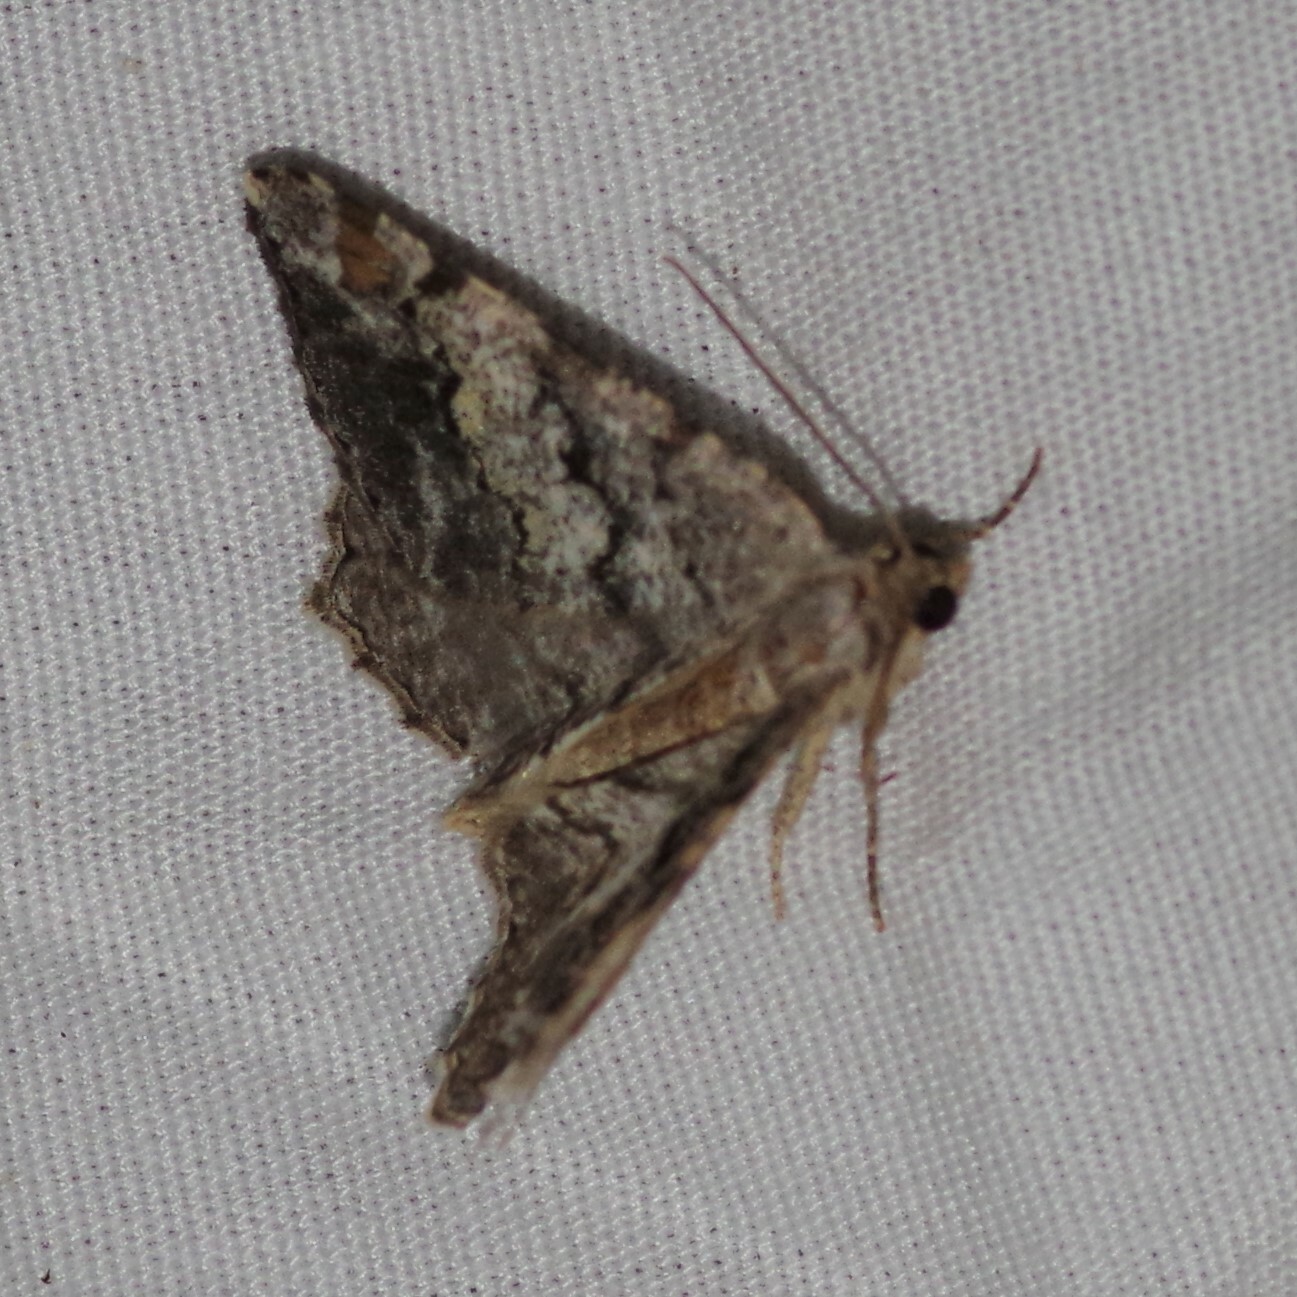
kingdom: Animalia
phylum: Arthropoda
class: Insecta
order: Lepidoptera
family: Geometridae
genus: Macaria
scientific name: Macaria granitata
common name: Granite moth
